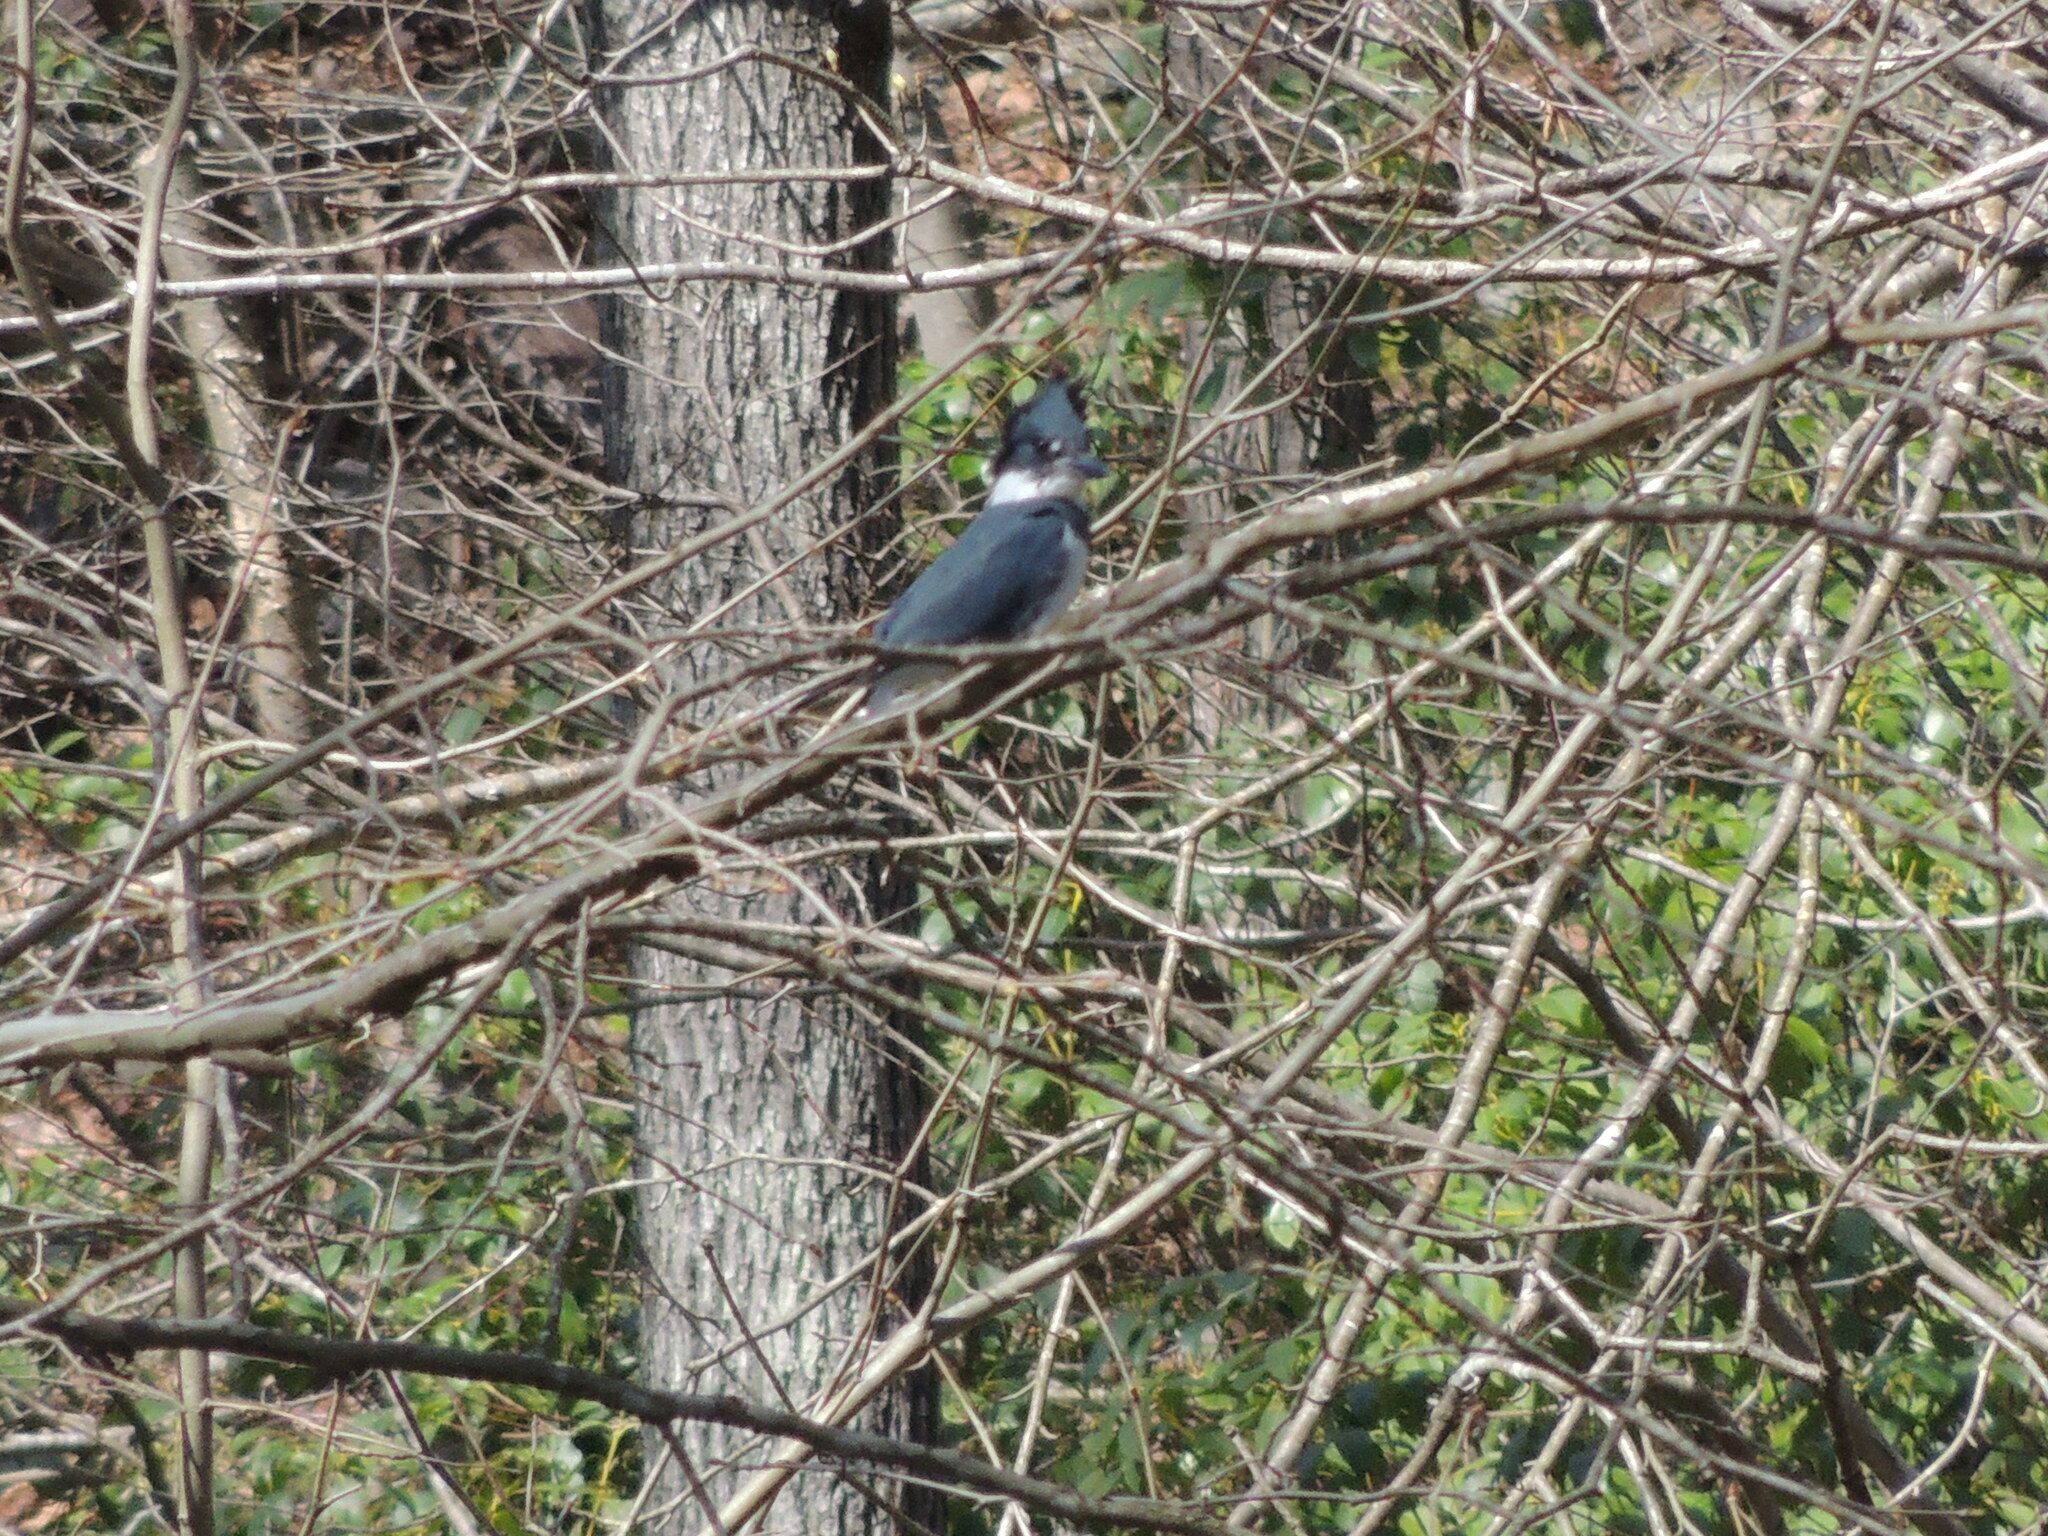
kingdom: Animalia
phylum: Chordata
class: Aves
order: Coraciiformes
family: Alcedinidae
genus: Megaceryle
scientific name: Megaceryle alcyon
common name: Belted kingfisher
